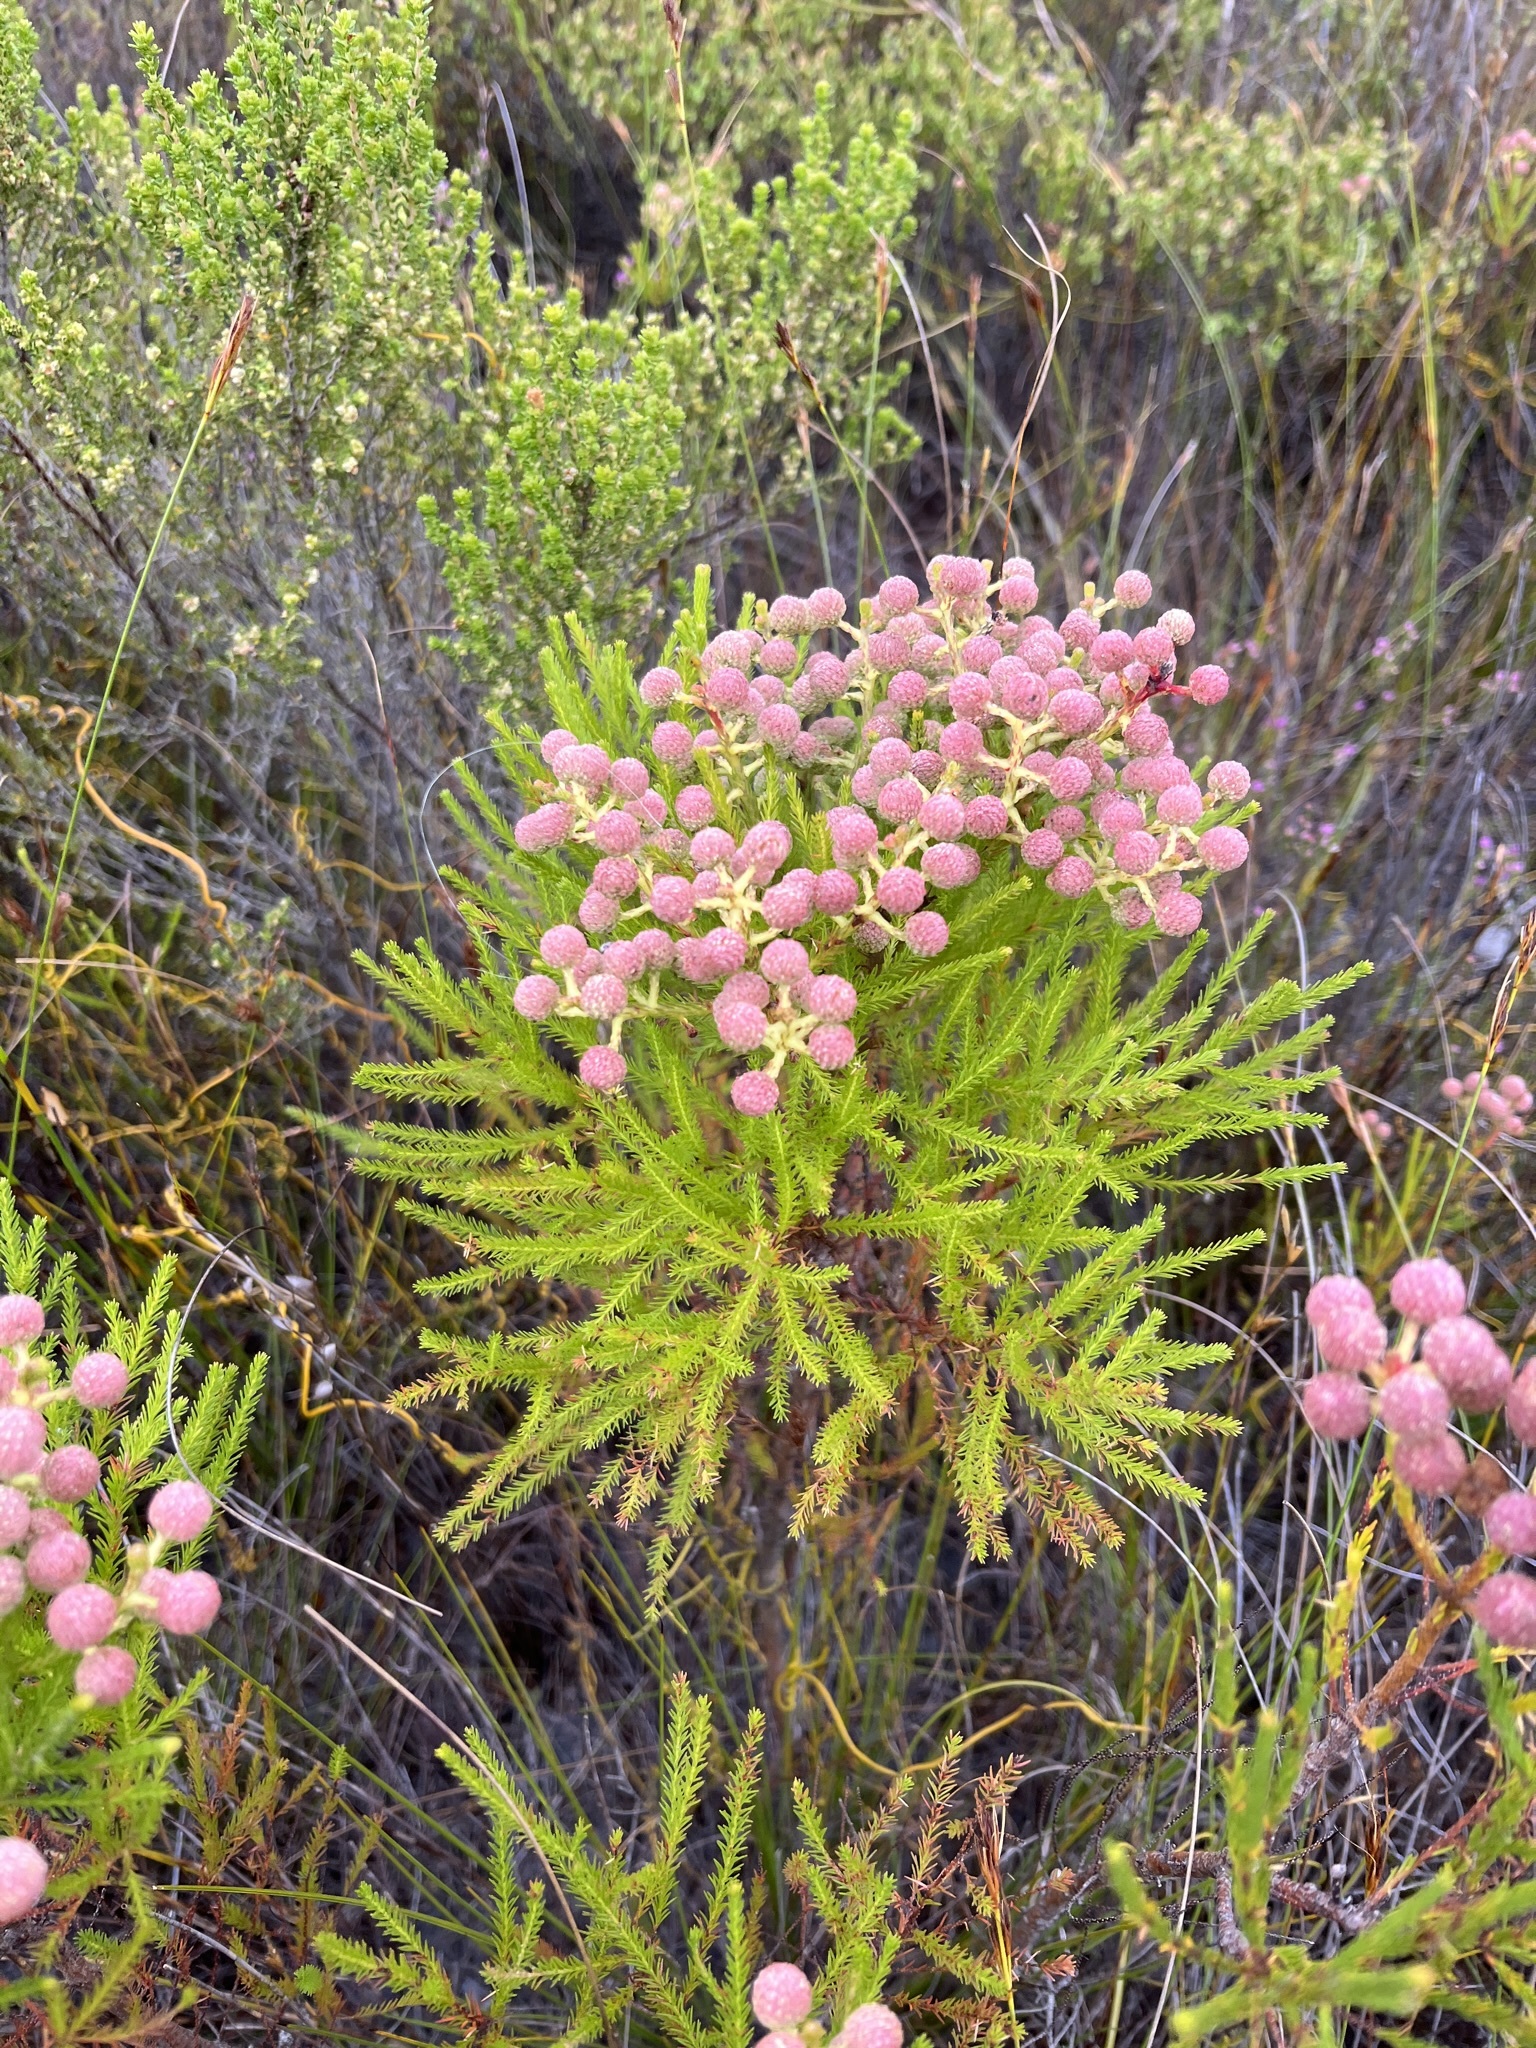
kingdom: Plantae
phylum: Tracheophyta
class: Magnoliopsida
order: Bruniales
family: Bruniaceae
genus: Berzelia
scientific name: Berzelia lanuginosa
